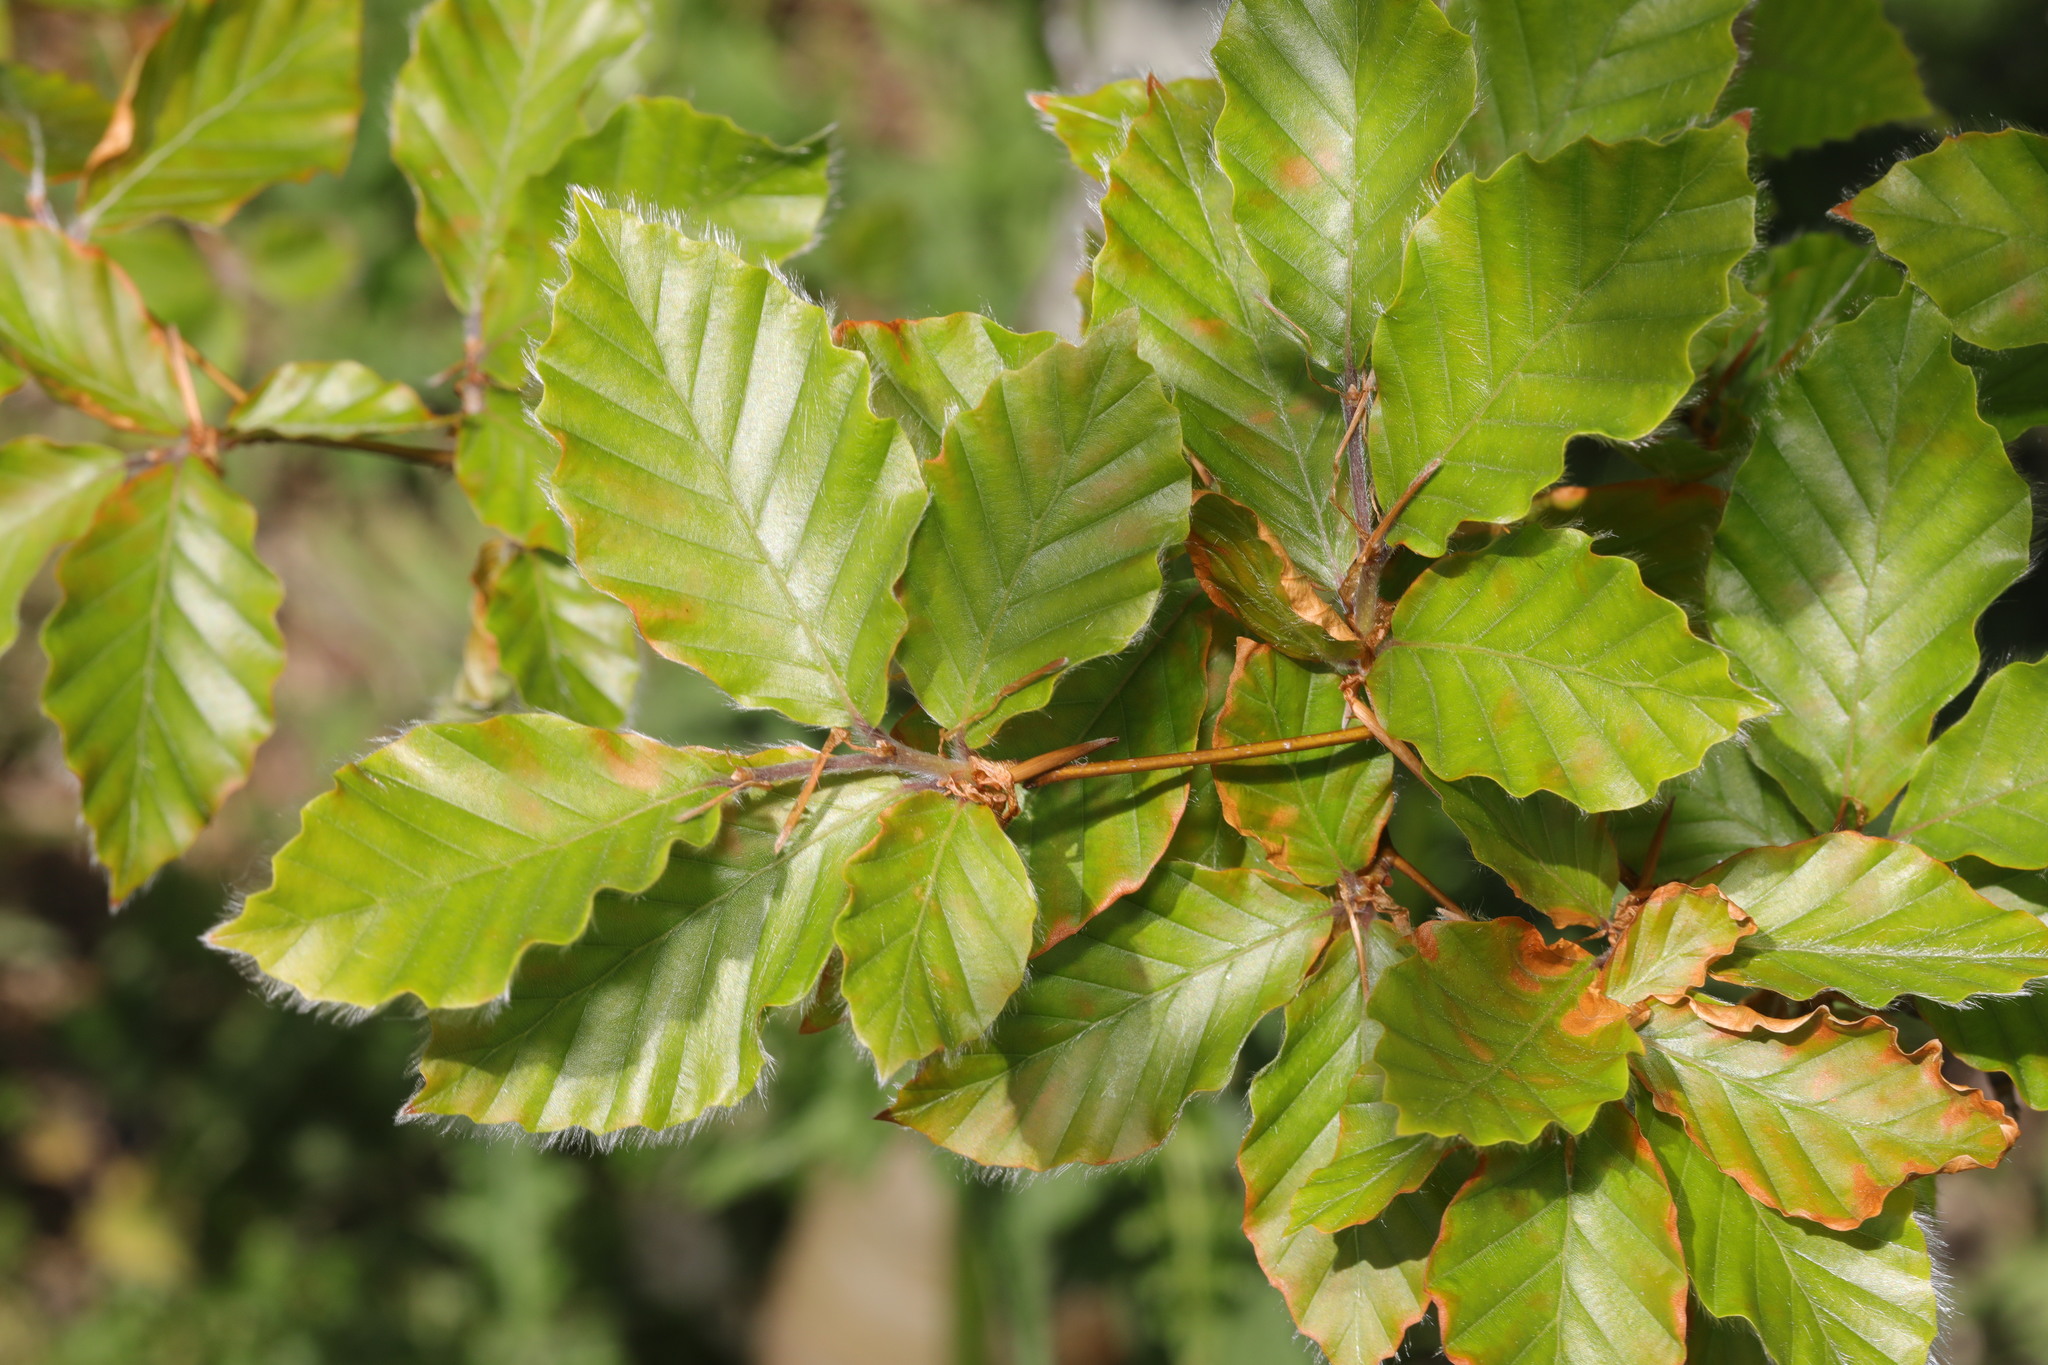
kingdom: Plantae
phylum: Tracheophyta
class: Magnoliopsida
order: Fagales
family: Fagaceae
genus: Fagus
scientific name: Fagus sylvatica
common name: Beech
